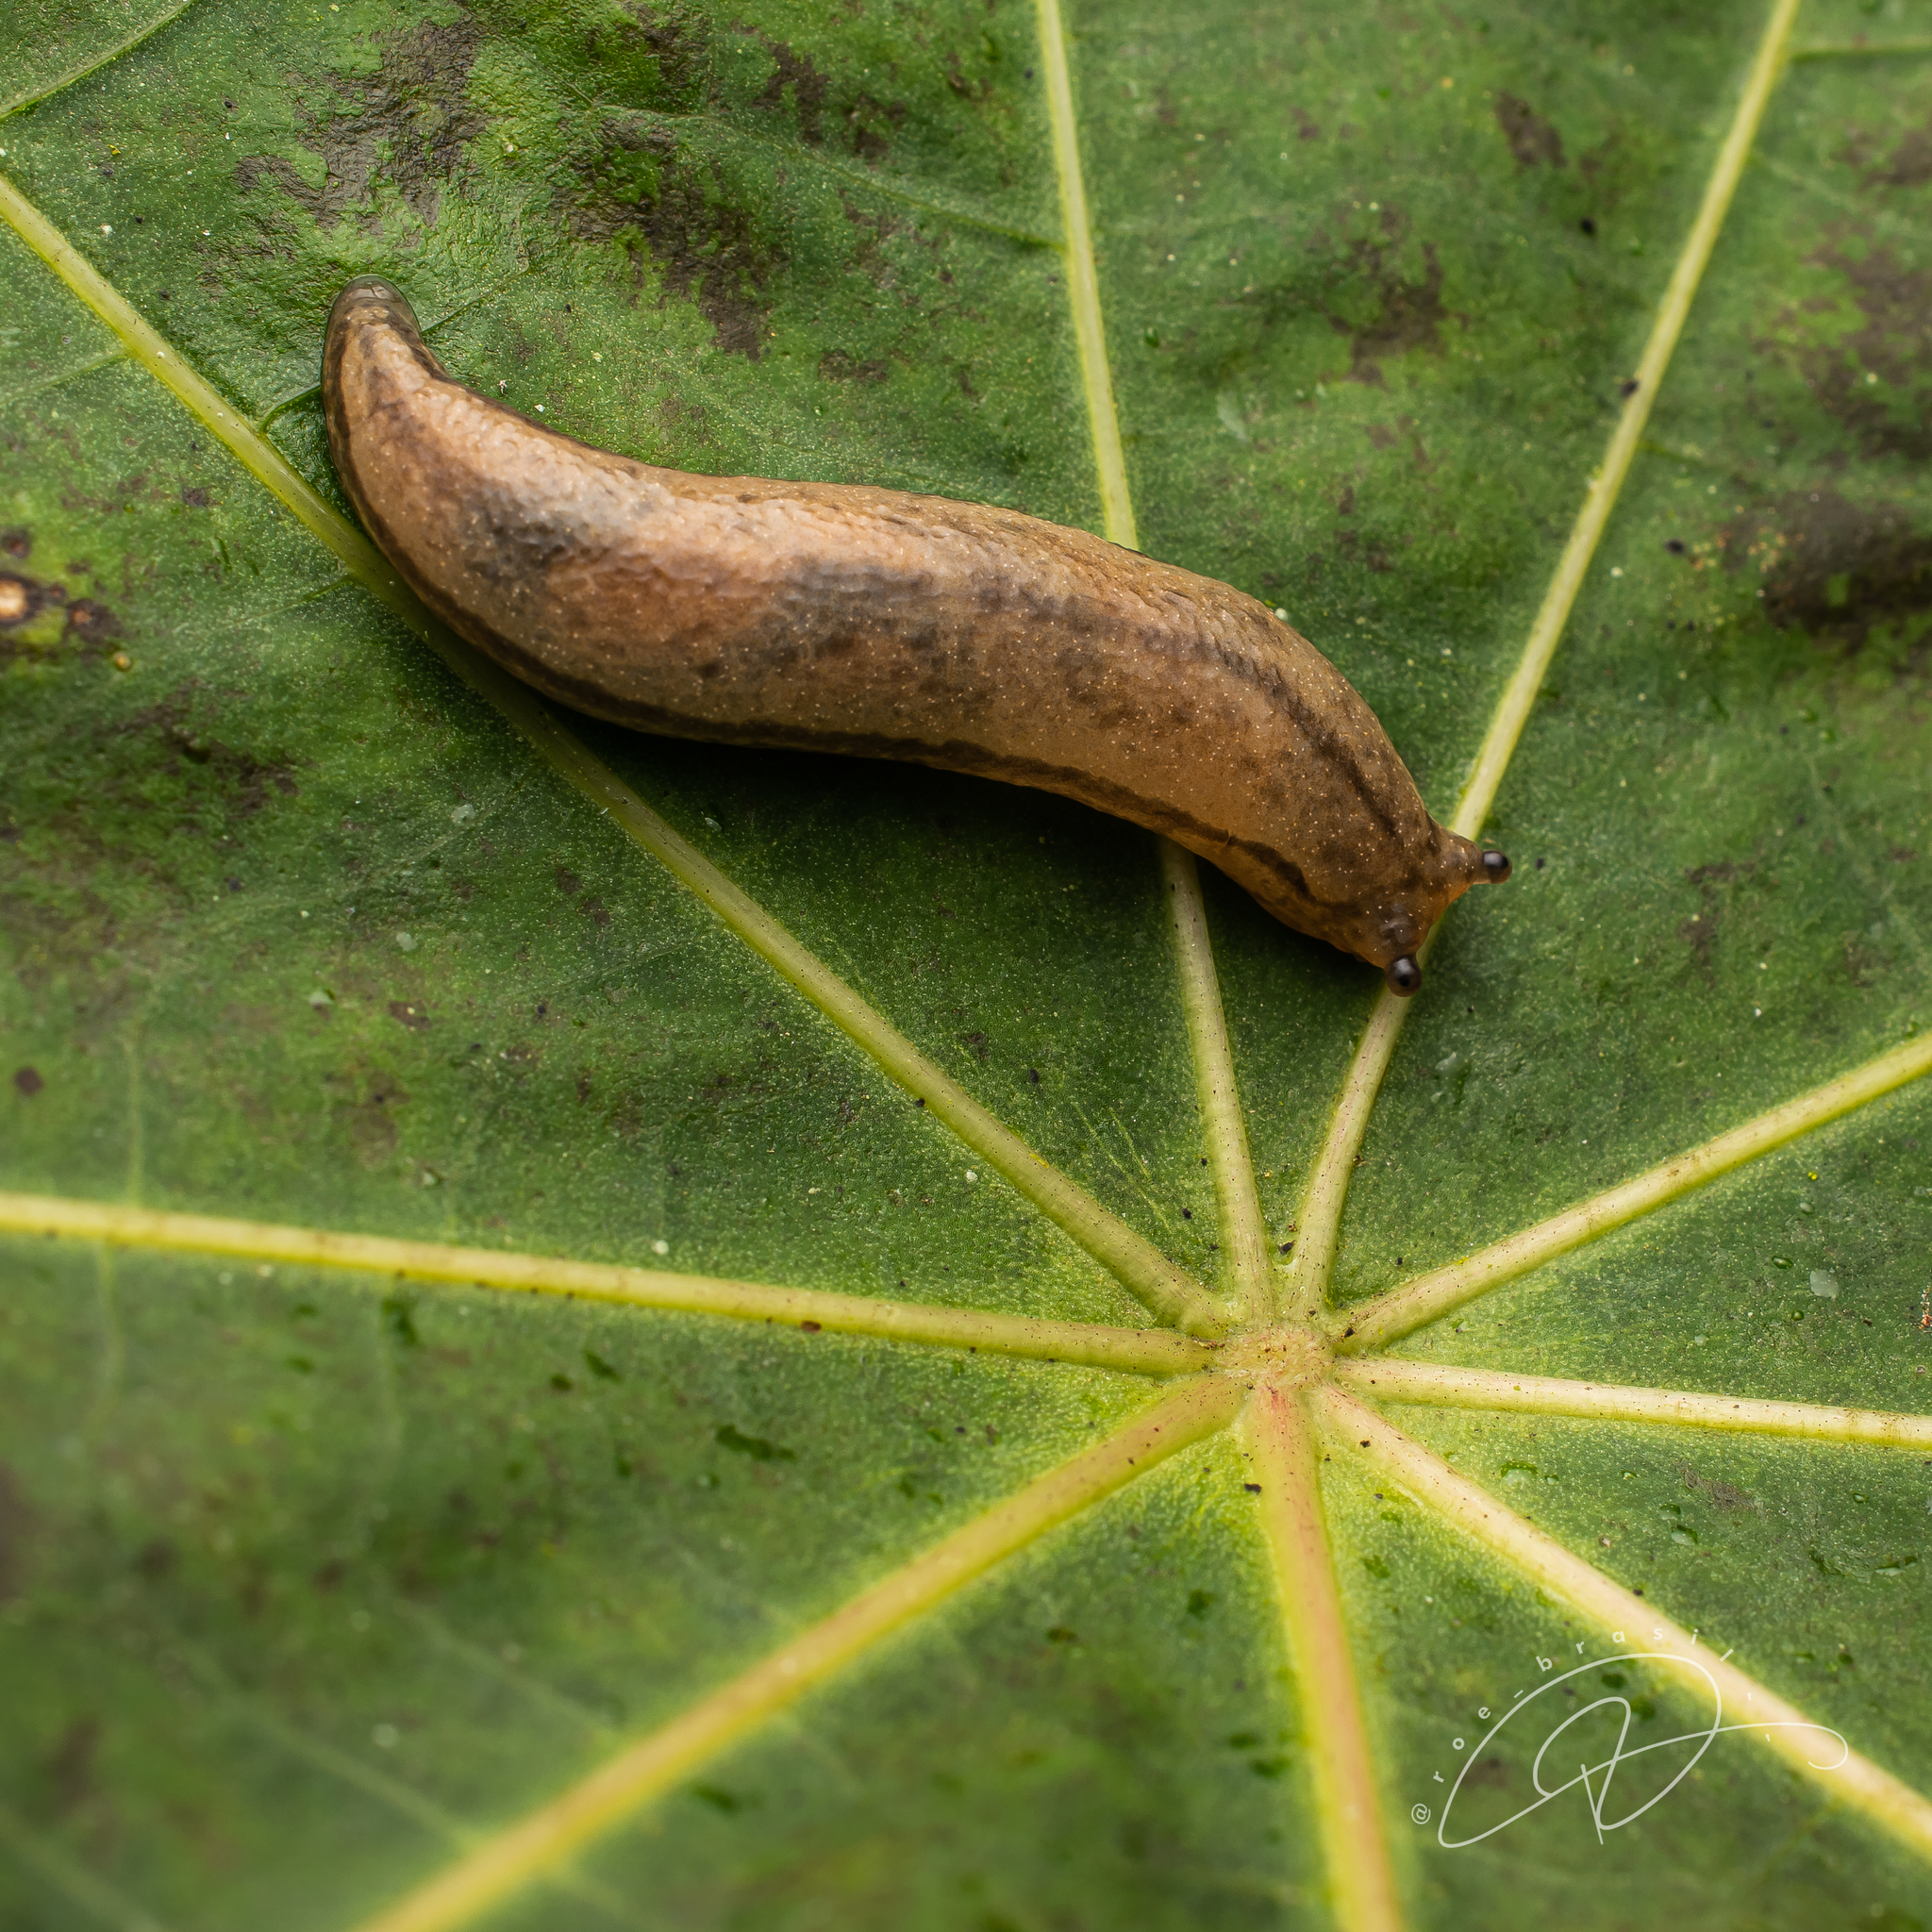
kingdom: Animalia
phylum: Mollusca
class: Gastropoda
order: Stylommatophora
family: Philomycidae
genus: Meghimatium
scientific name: Meghimatium pictum
